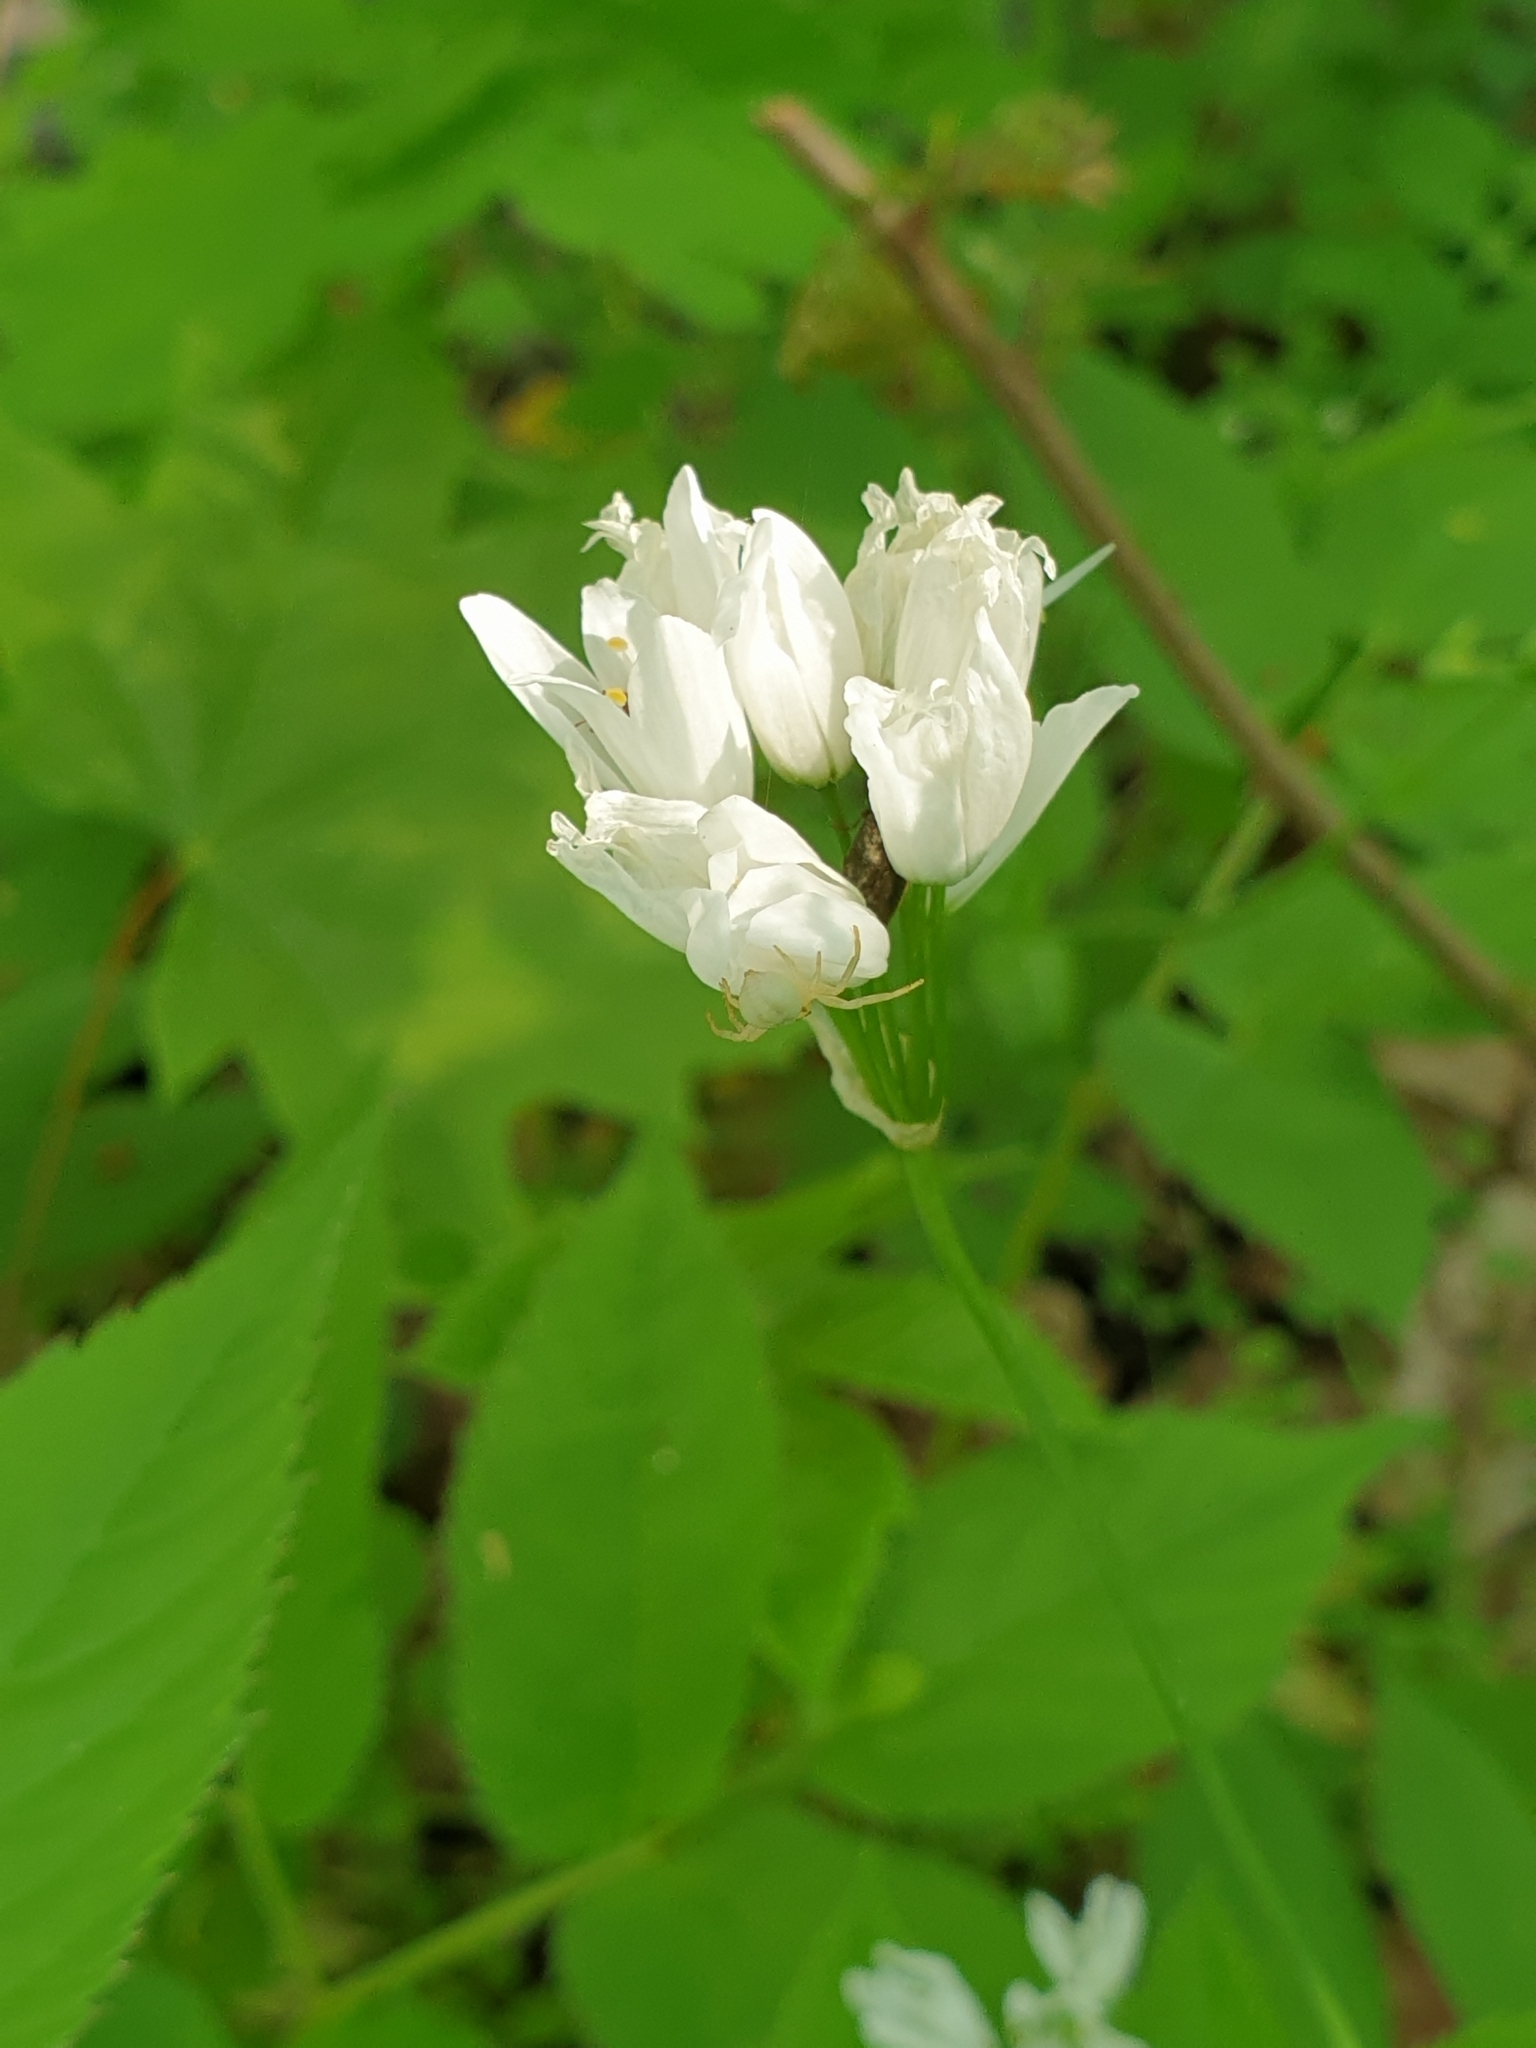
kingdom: Animalia
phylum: Arthropoda
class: Arachnida
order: Araneae
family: Thomisidae
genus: Misumena
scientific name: Misumena vatia
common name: Goldenrod crab spider
